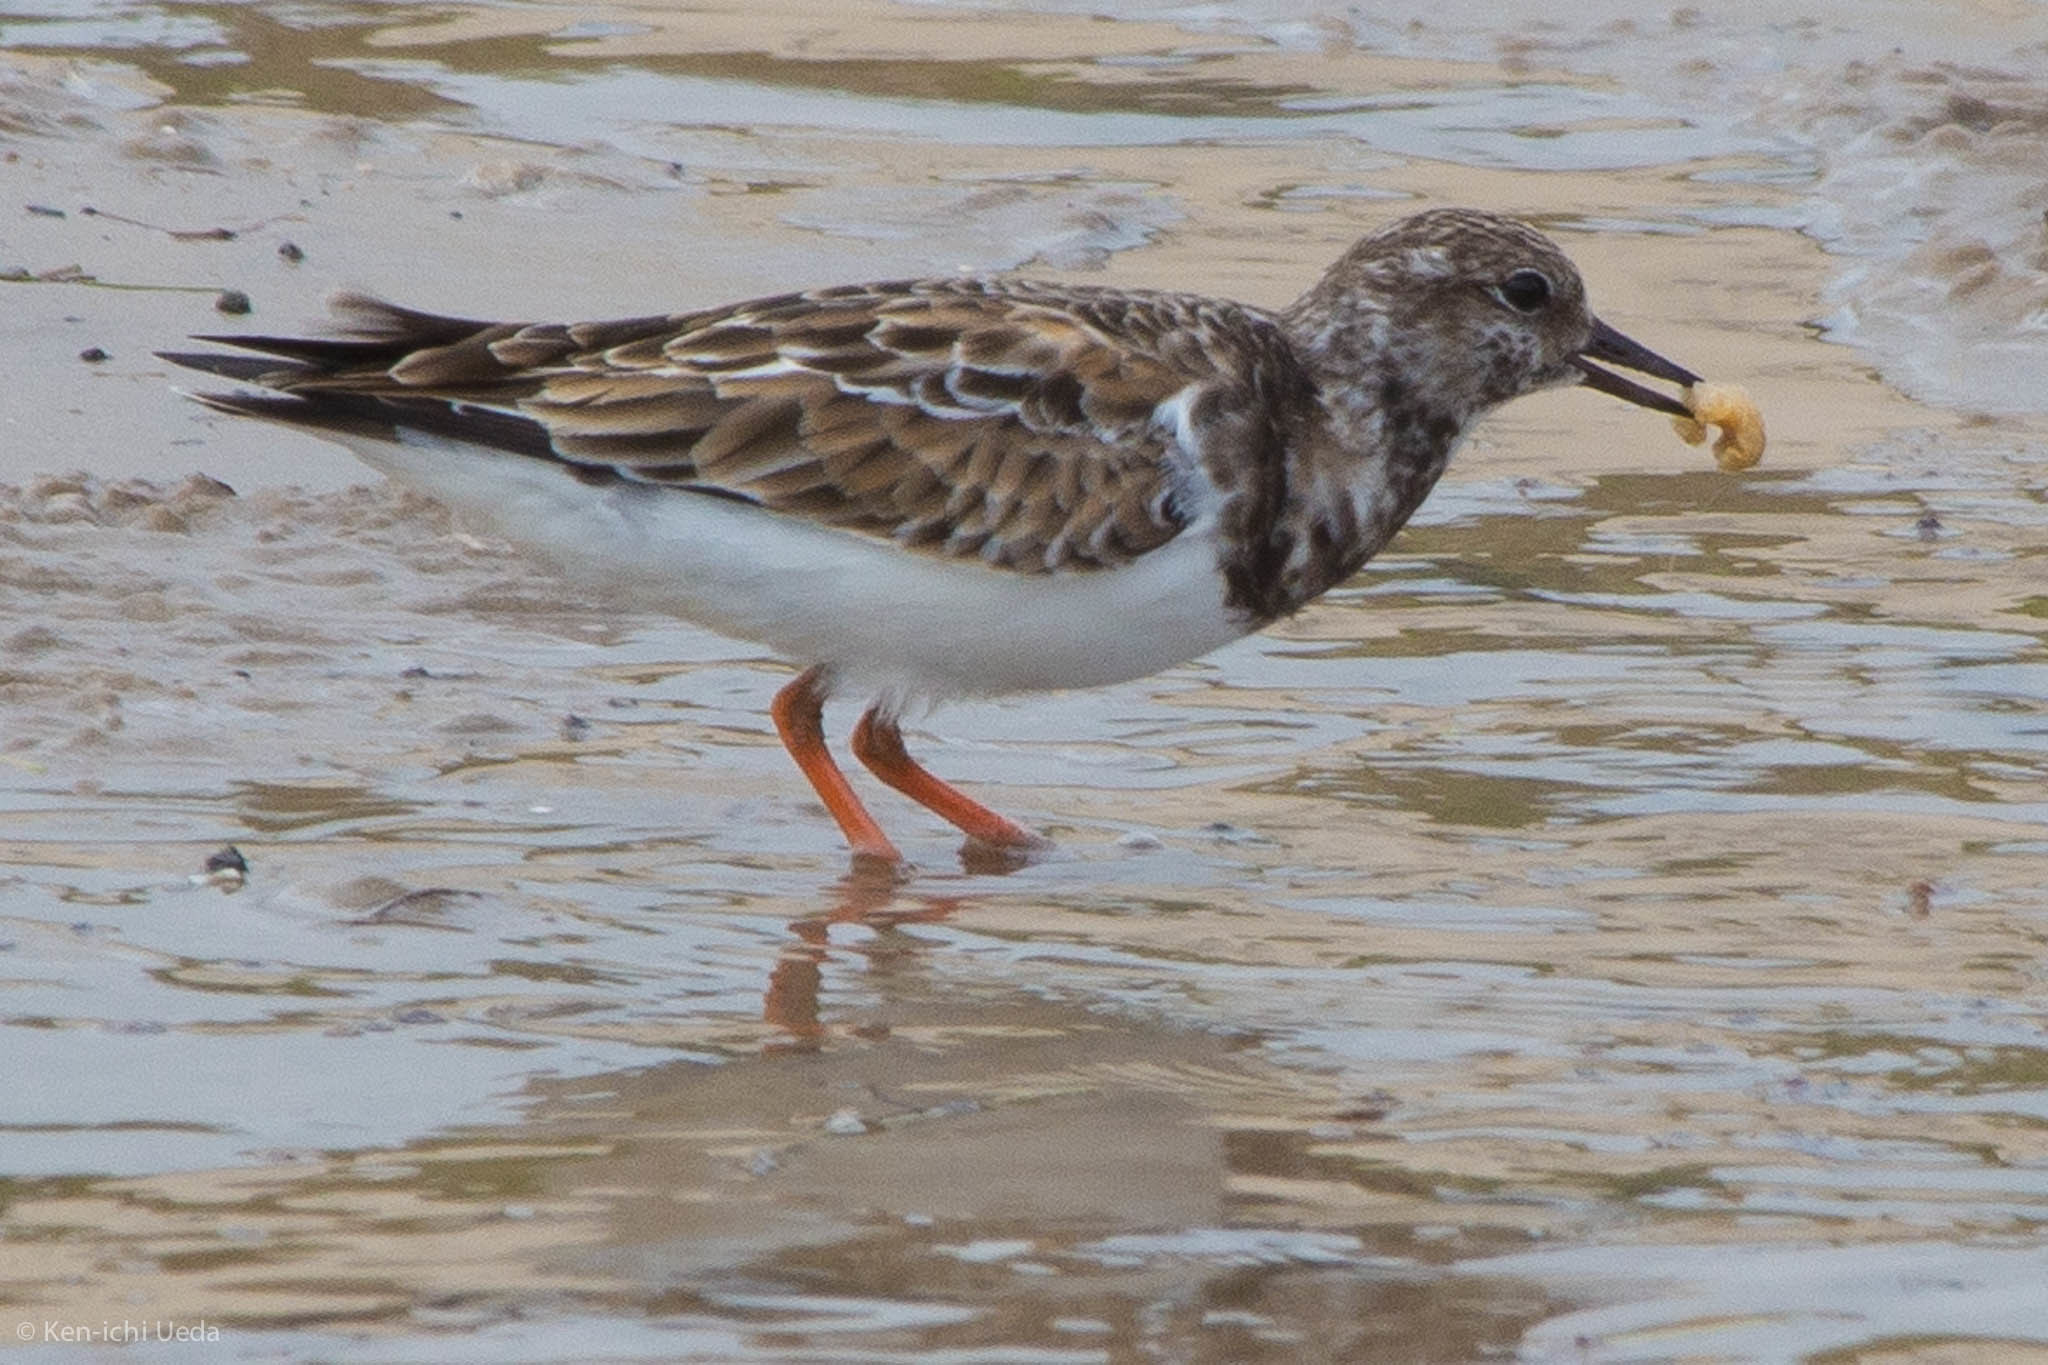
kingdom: Animalia
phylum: Chordata
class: Aves
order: Charadriiformes
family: Scolopacidae
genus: Arenaria
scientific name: Arenaria interpres
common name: Ruddy turnstone
